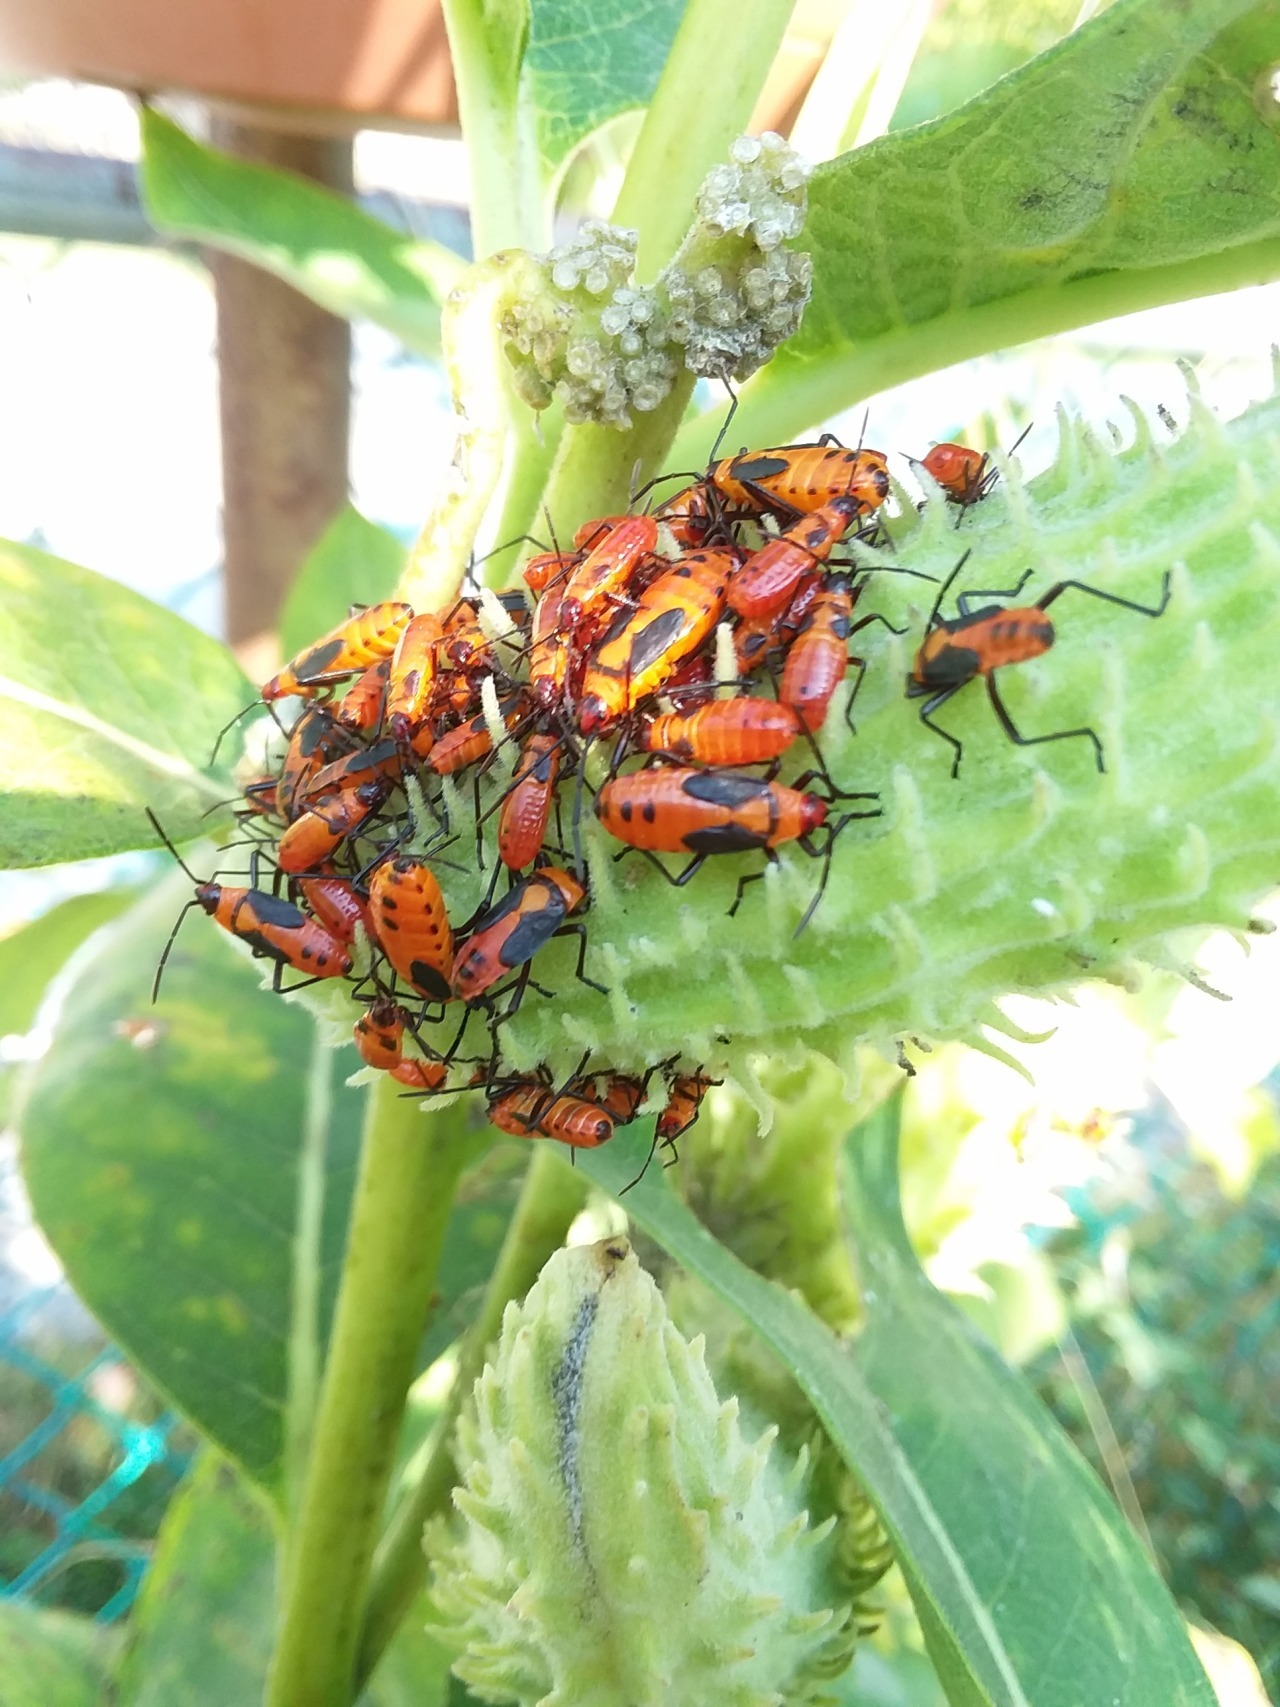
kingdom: Animalia
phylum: Arthropoda
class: Insecta
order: Hemiptera
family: Lygaeidae
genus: Oncopeltus
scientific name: Oncopeltus fasciatus
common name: Large milkweed bug
